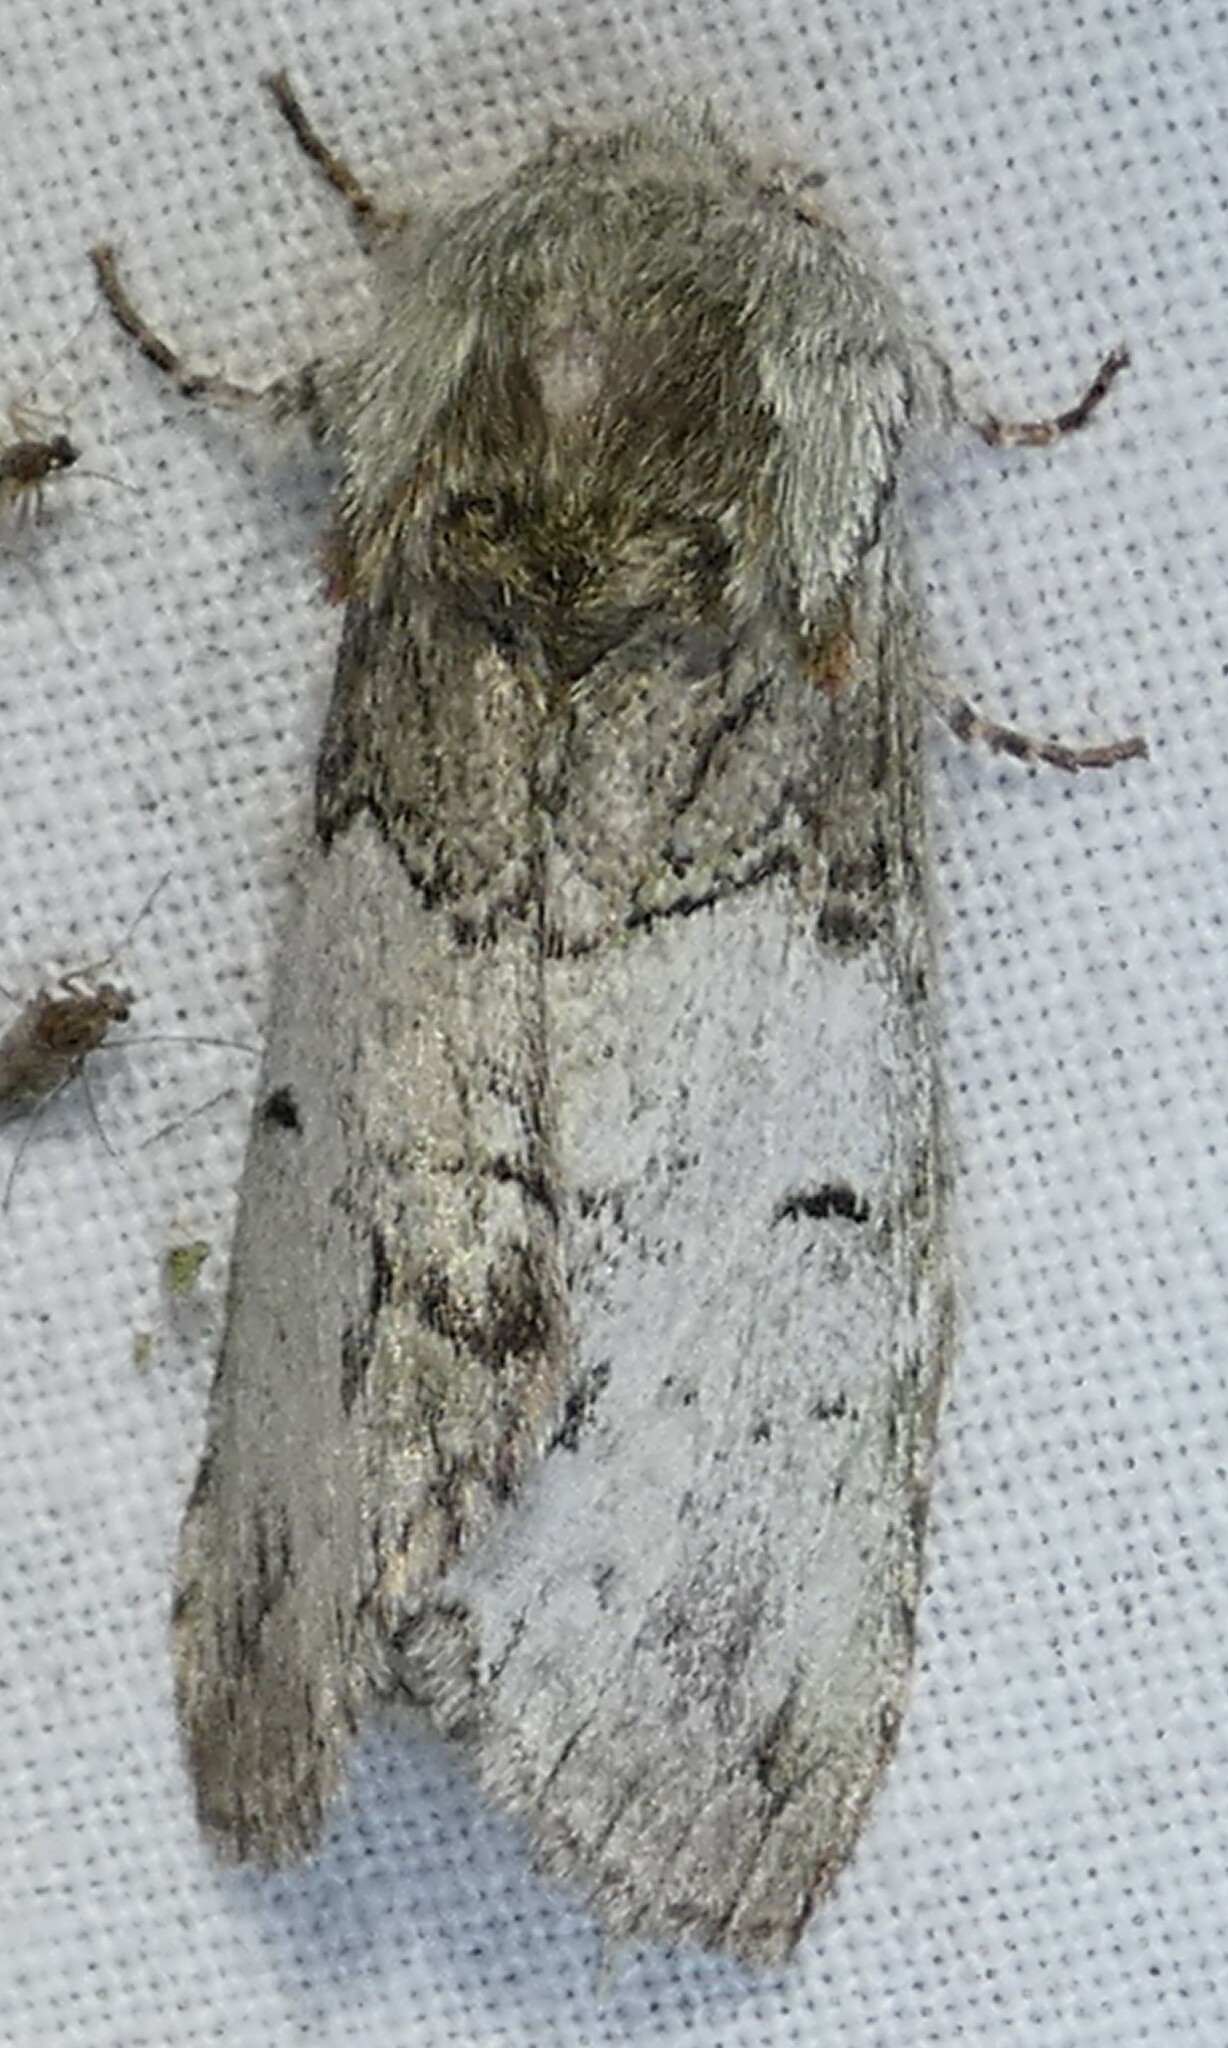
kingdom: Animalia
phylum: Arthropoda
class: Insecta
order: Lepidoptera
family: Notodontidae
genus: Macrurocampa
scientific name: Macrurocampa marthesia
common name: Mottled prominent
